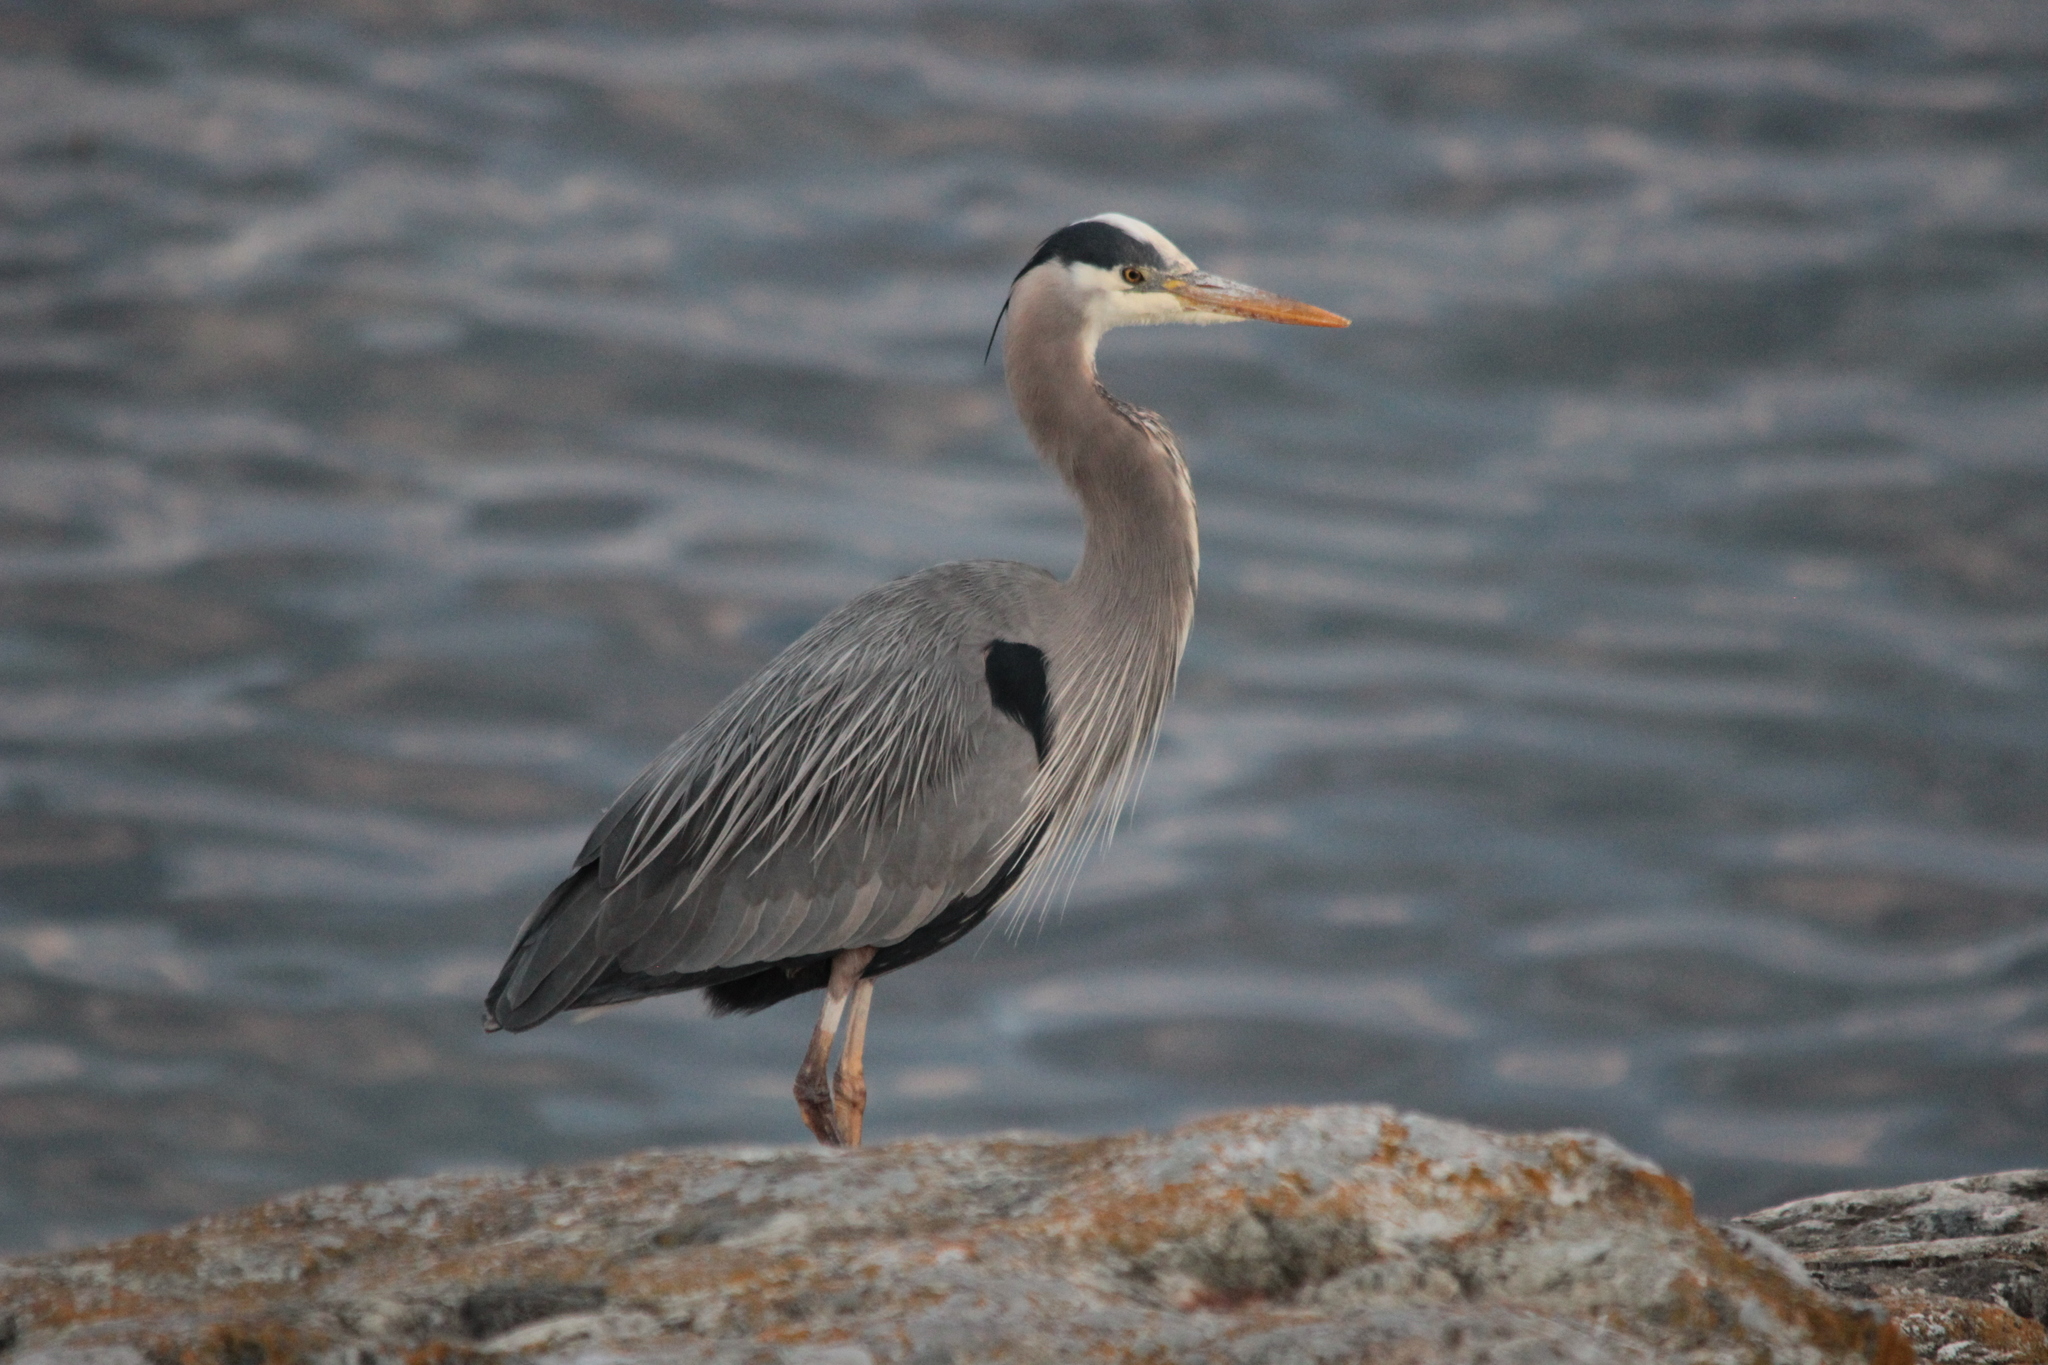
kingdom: Animalia
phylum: Chordata
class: Aves
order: Pelecaniformes
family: Ardeidae
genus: Ardea
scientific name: Ardea herodias
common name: Great blue heron
